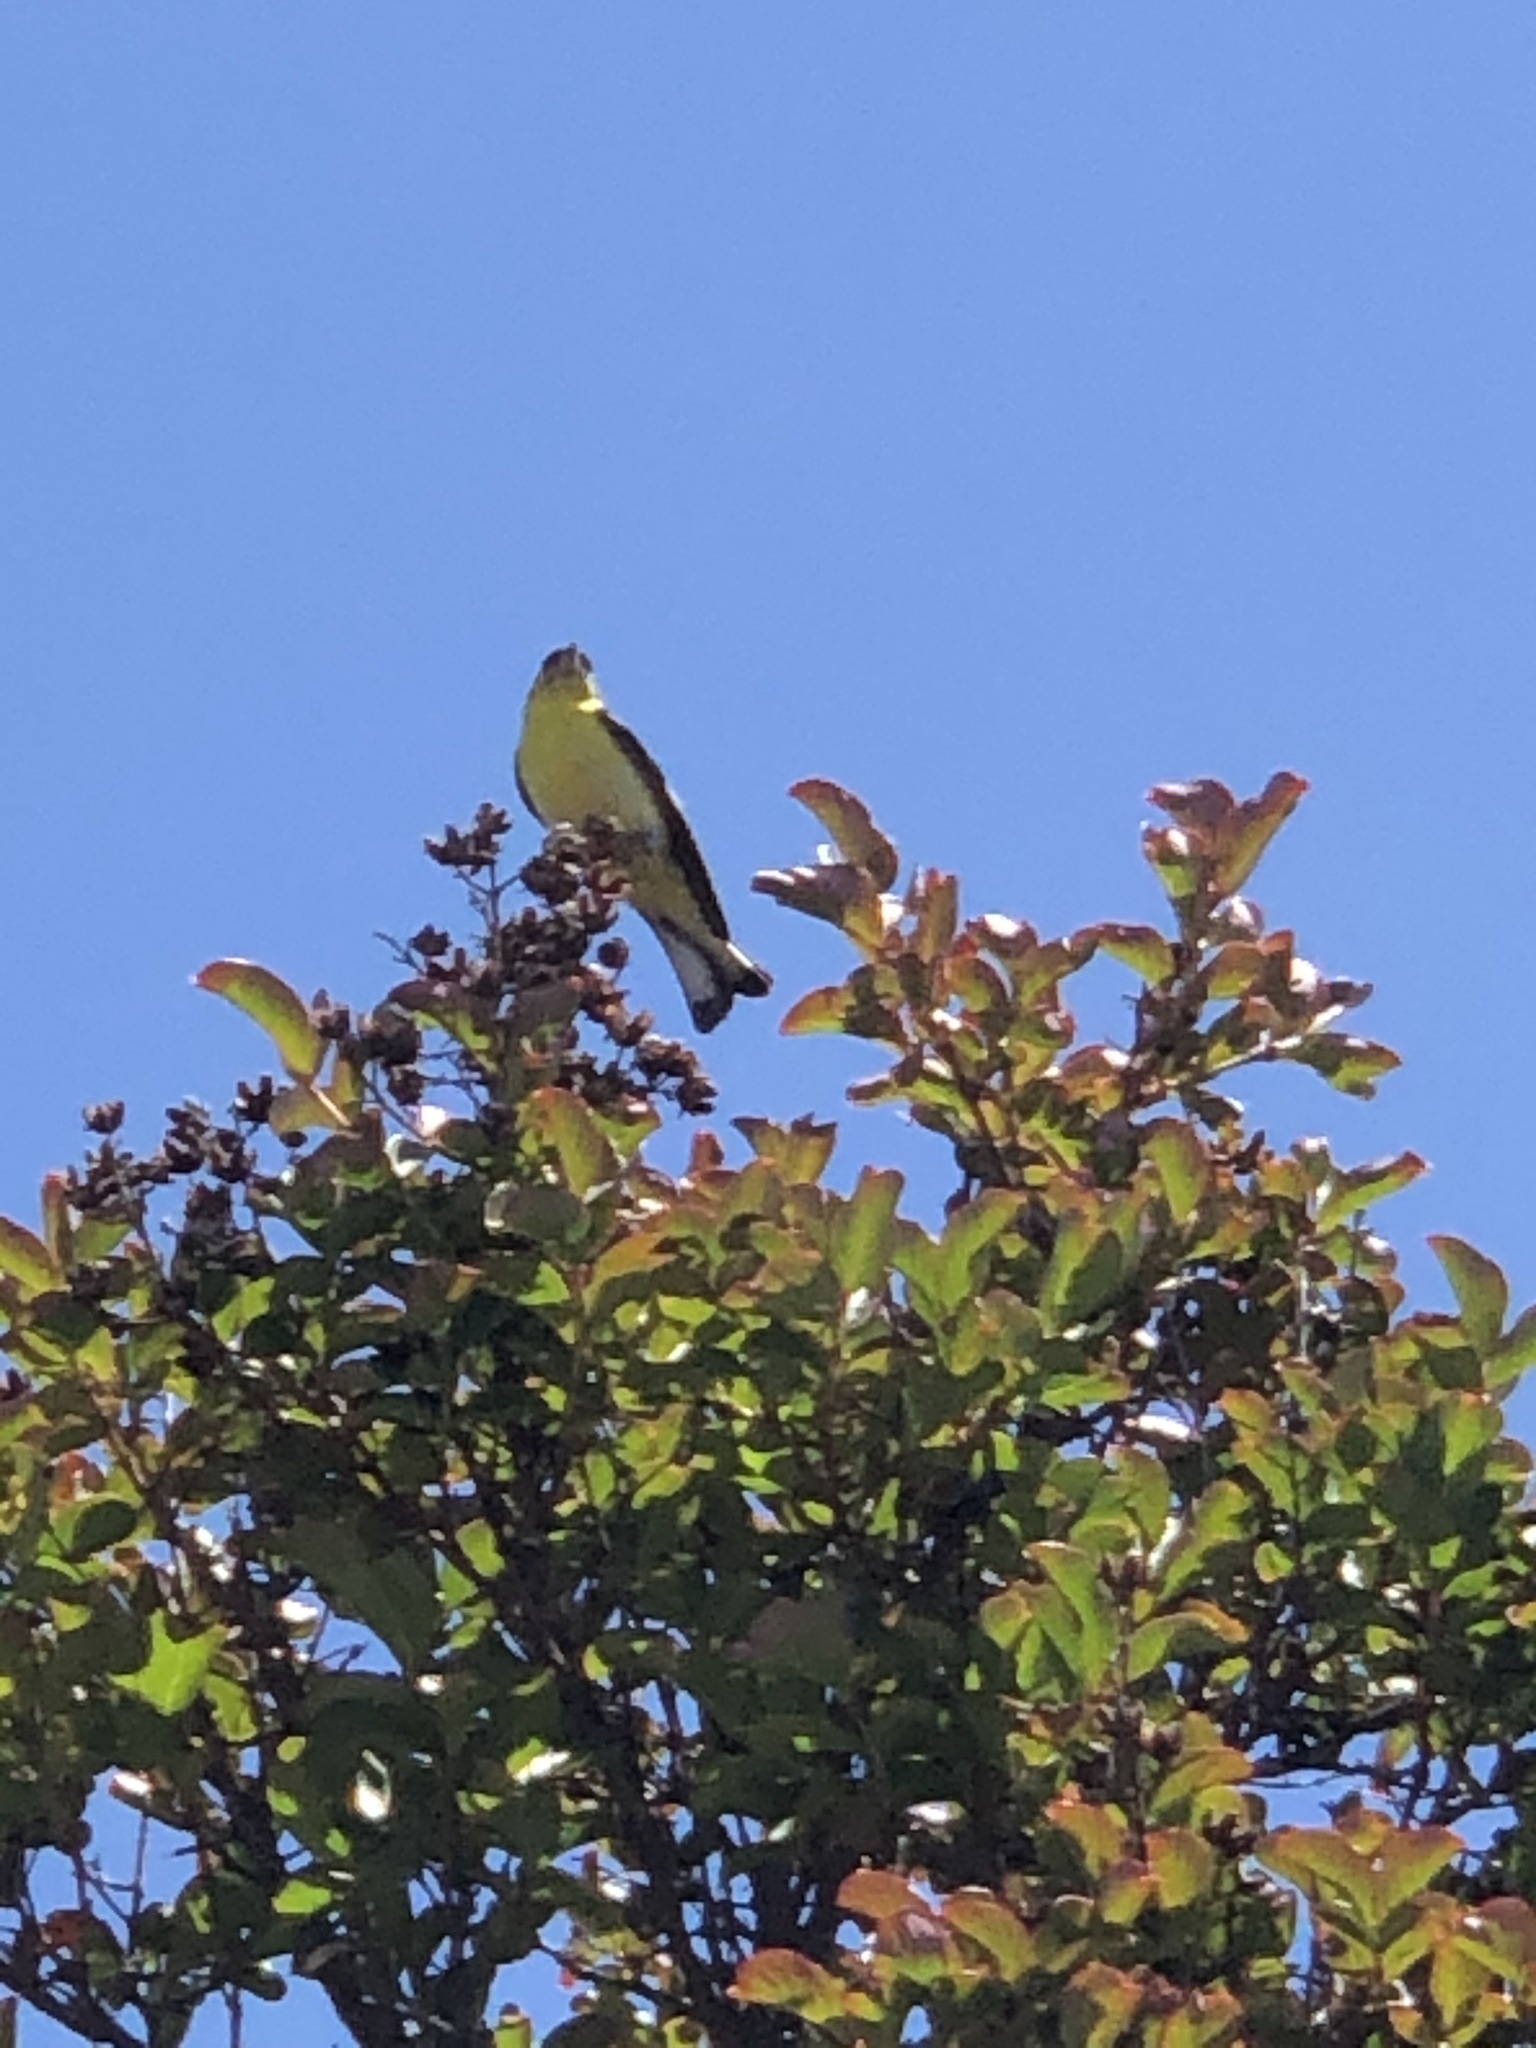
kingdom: Animalia
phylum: Chordata
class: Aves
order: Passeriformes
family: Fringillidae
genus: Spinus
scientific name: Spinus psaltria
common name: Lesser goldfinch
